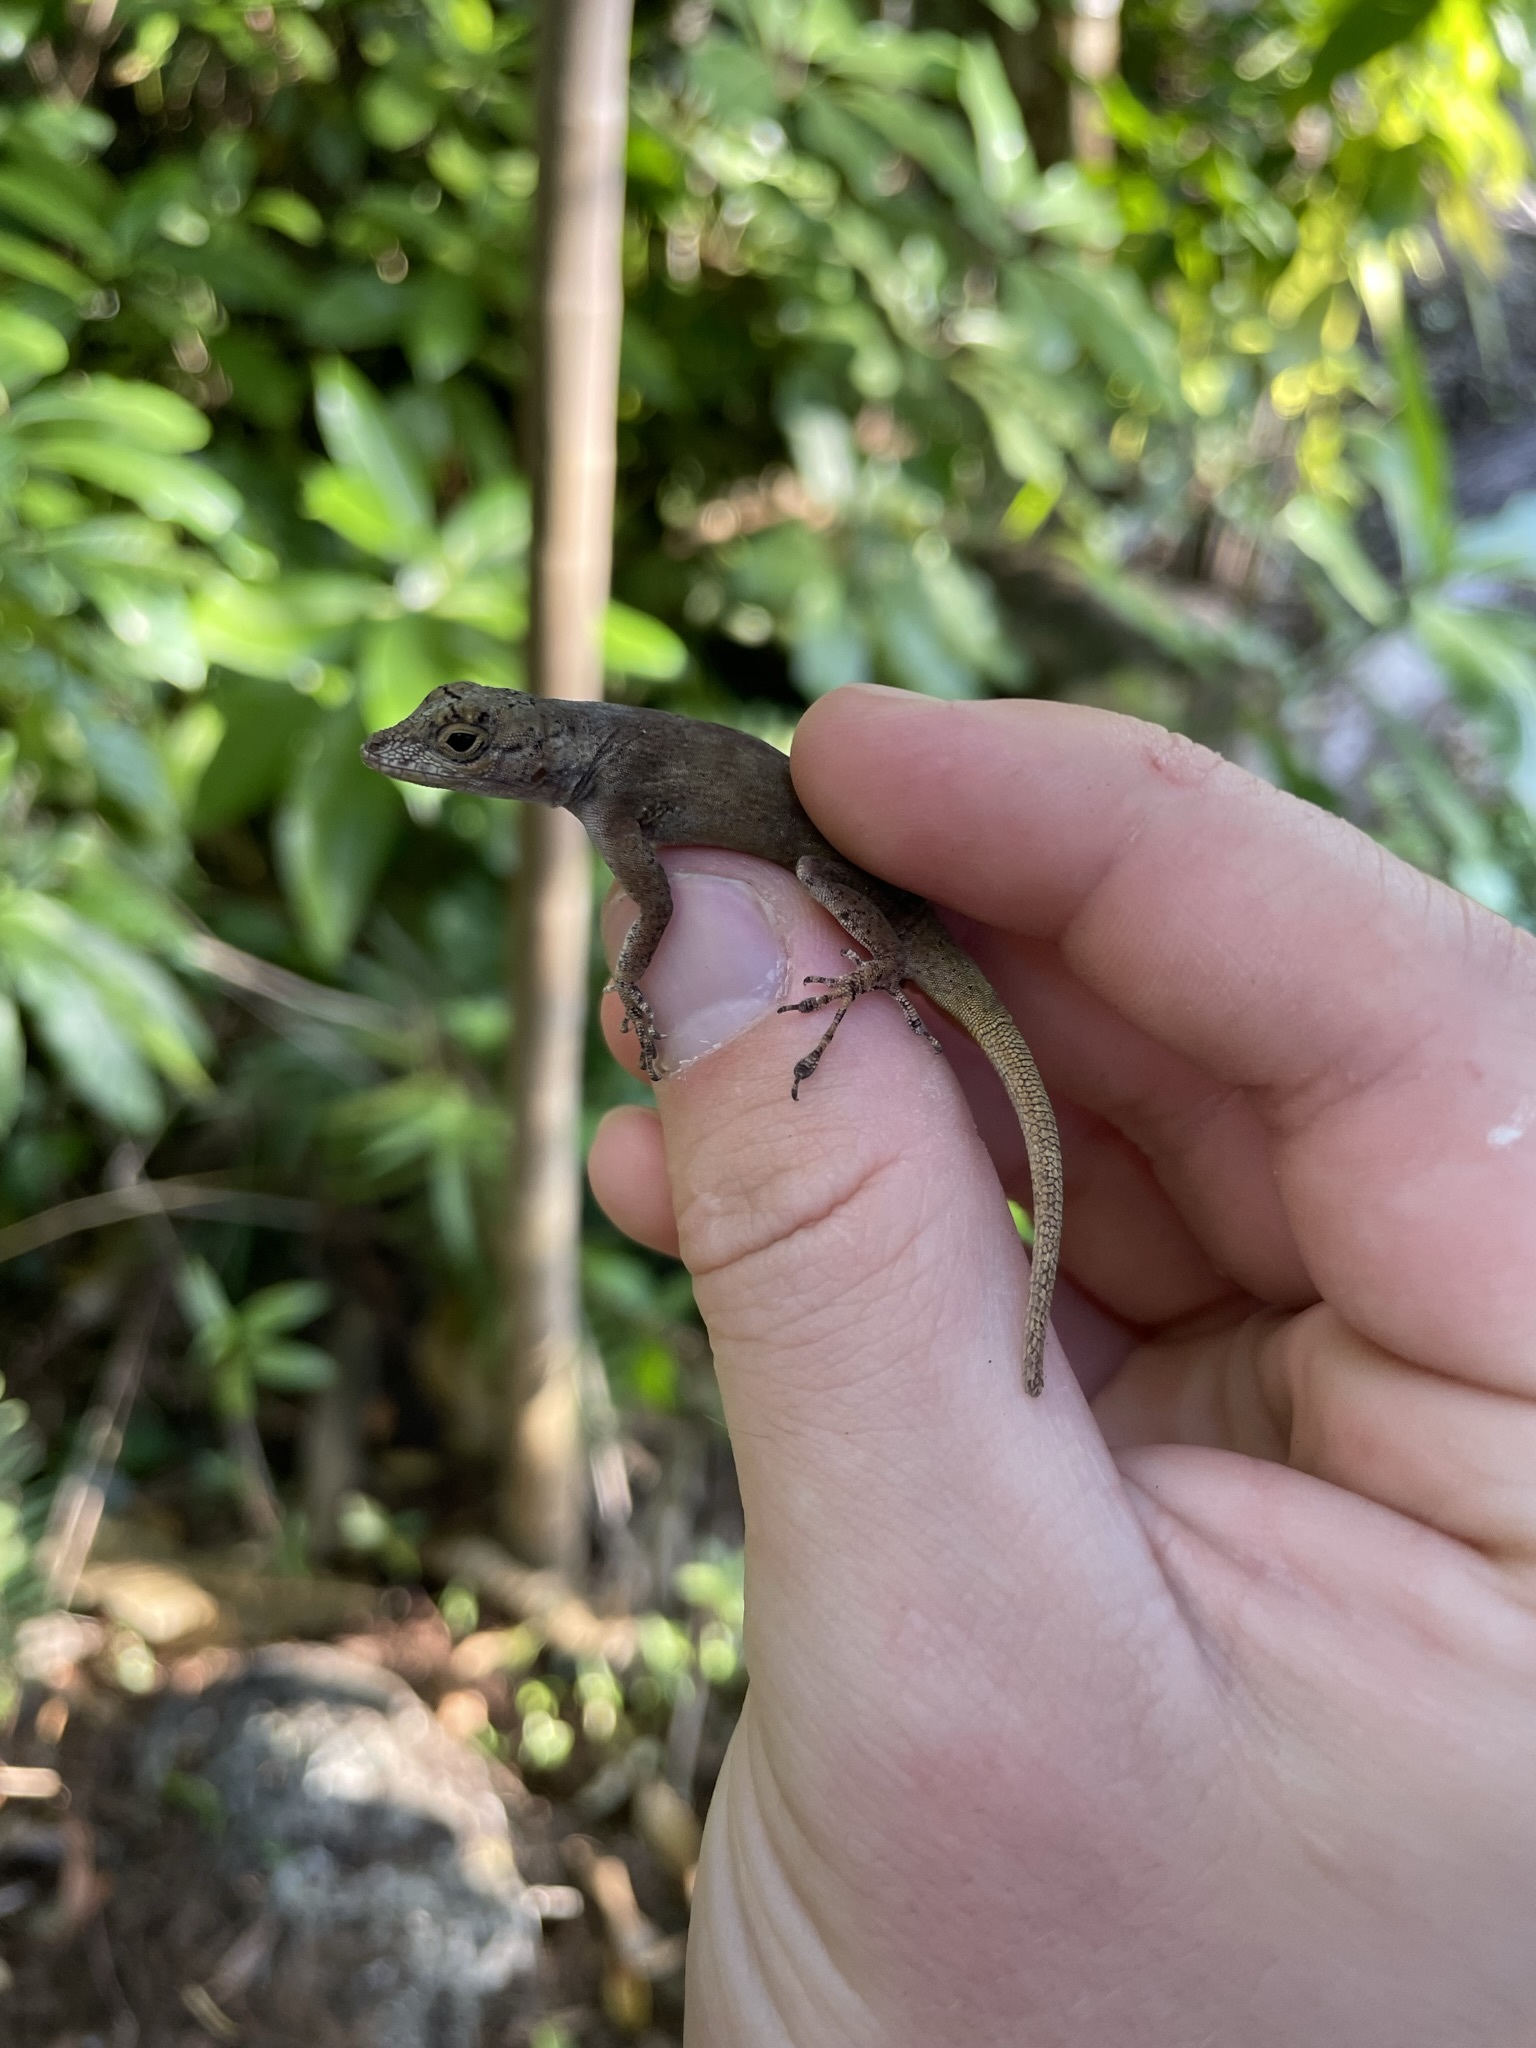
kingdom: Animalia
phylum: Chordata
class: Squamata
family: Dactyloidae
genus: Anolis
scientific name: Anolis distichus
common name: Bark anole
